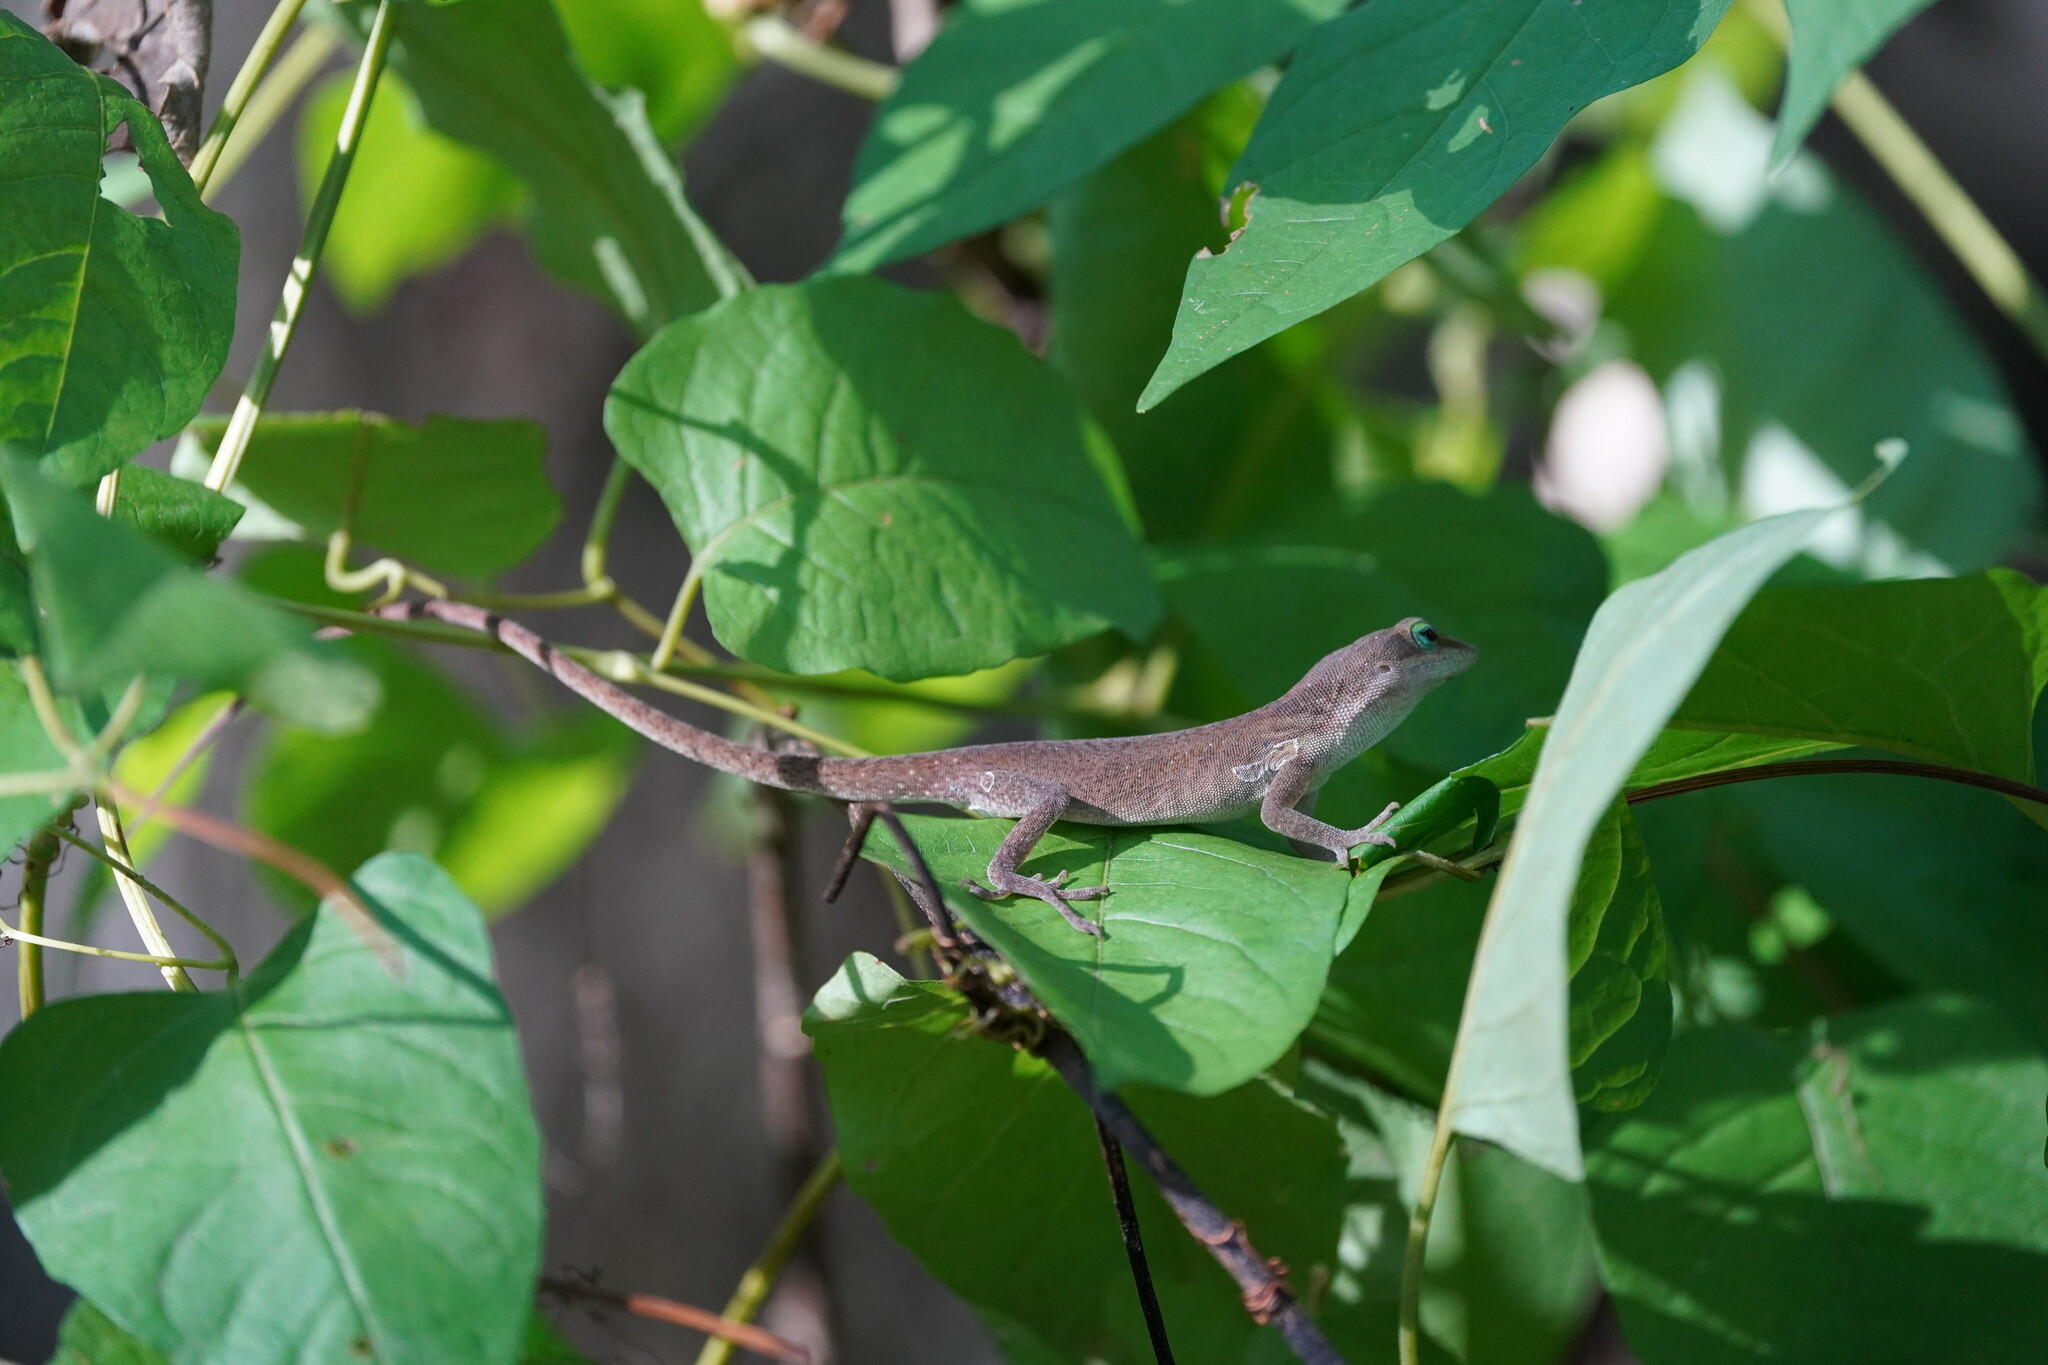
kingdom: Animalia
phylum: Chordata
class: Squamata
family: Dactyloidae
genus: Anolis
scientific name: Anolis carolinensis
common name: Green anole
